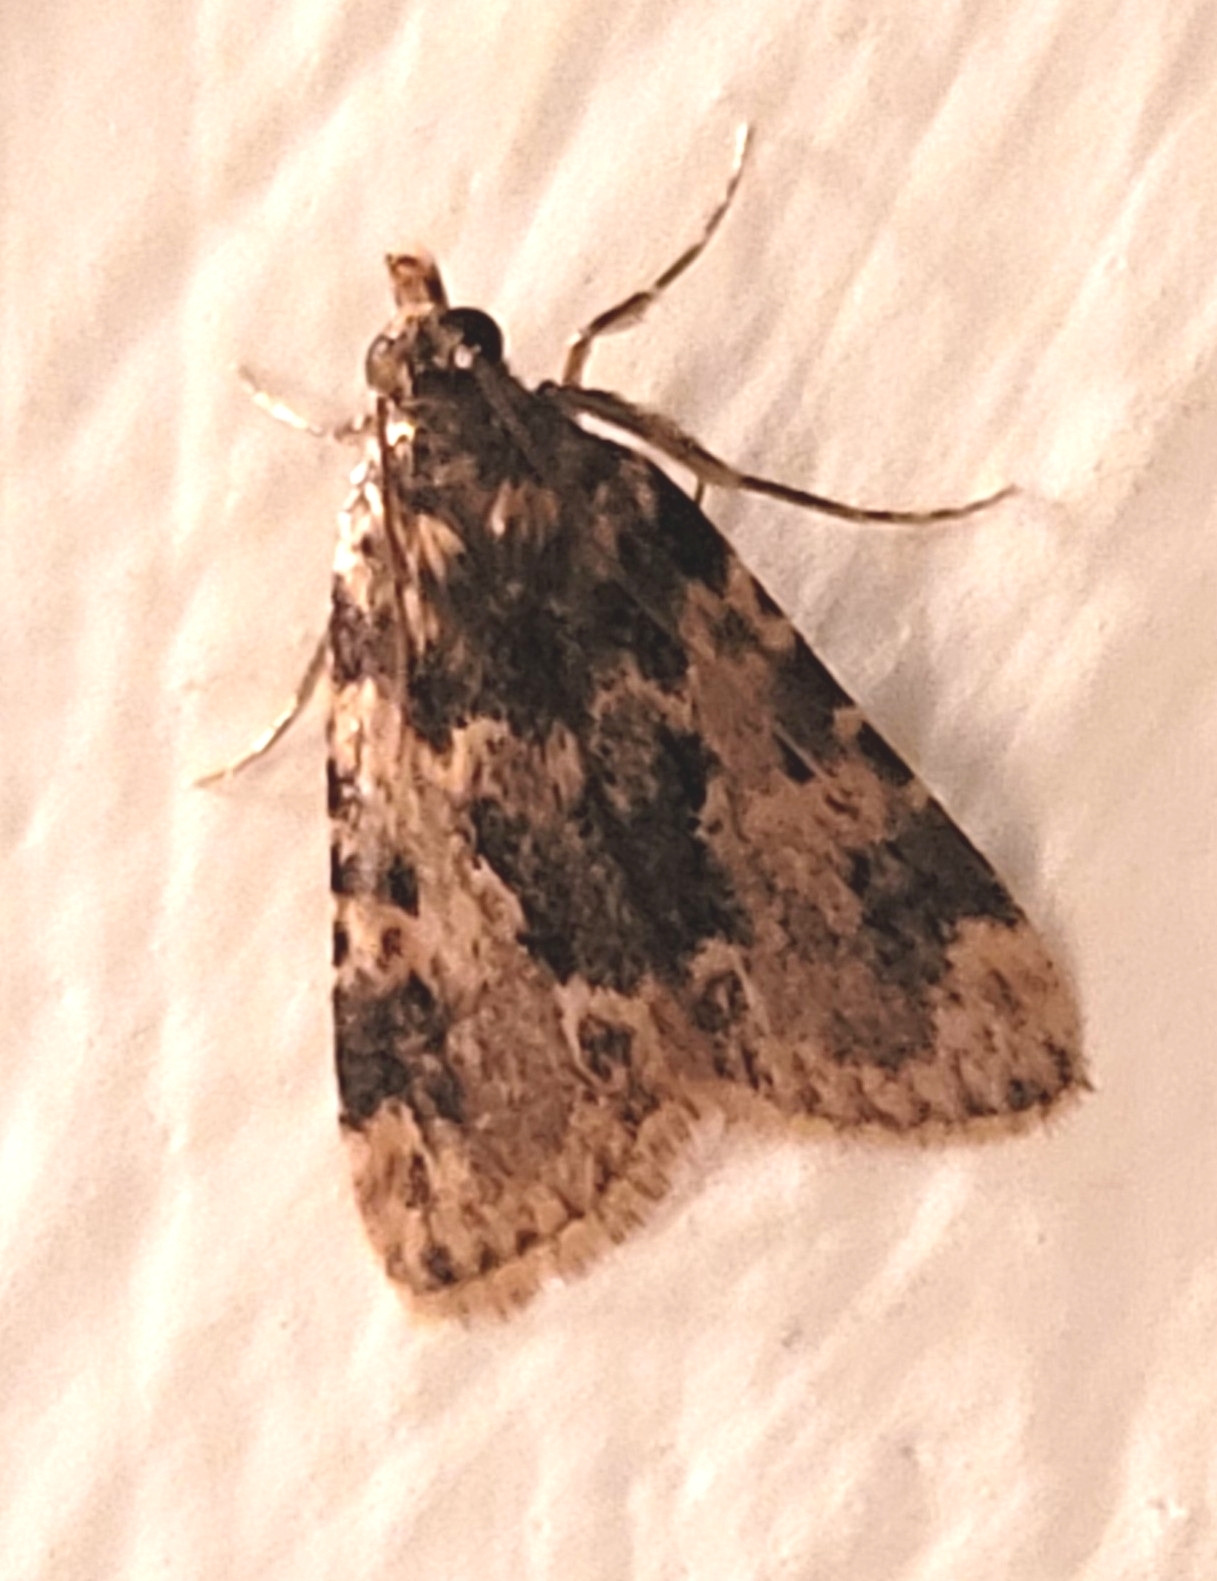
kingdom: Animalia
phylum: Arthropoda
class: Insecta
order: Lepidoptera
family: Pyralidae
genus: Aglossa
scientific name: Aglossa caprealis
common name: Small tabby
